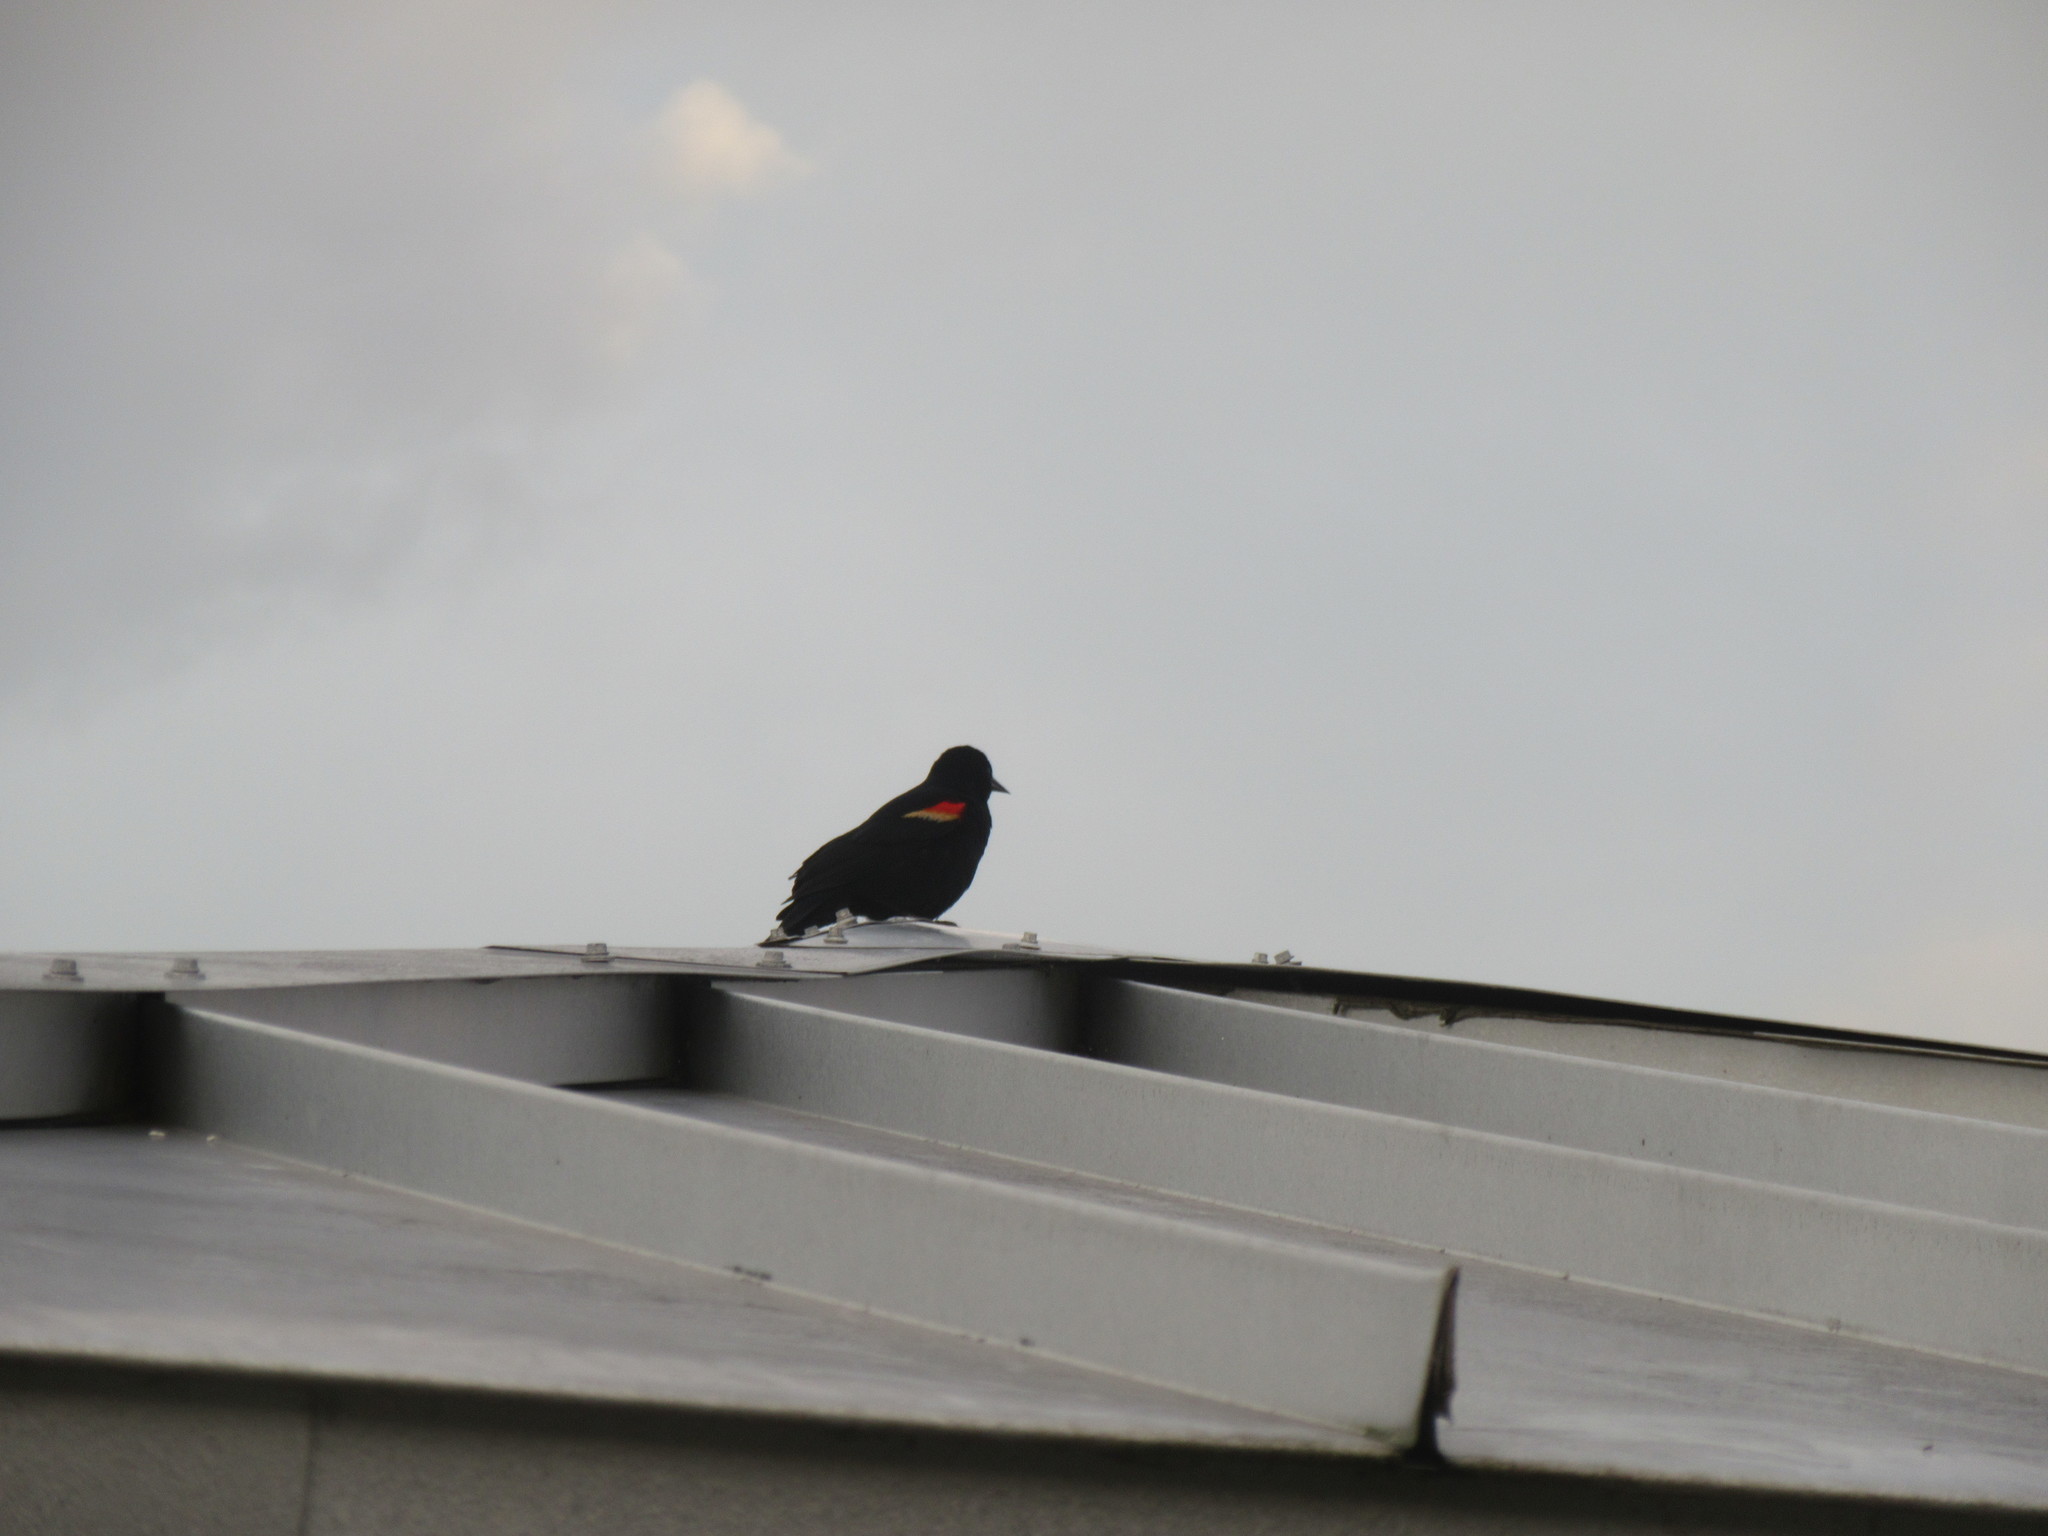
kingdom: Animalia
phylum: Chordata
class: Aves
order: Passeriformes
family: Icteridae
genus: Agelaius
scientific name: Agelaius phoeniceus
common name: Red-winged blackbird
